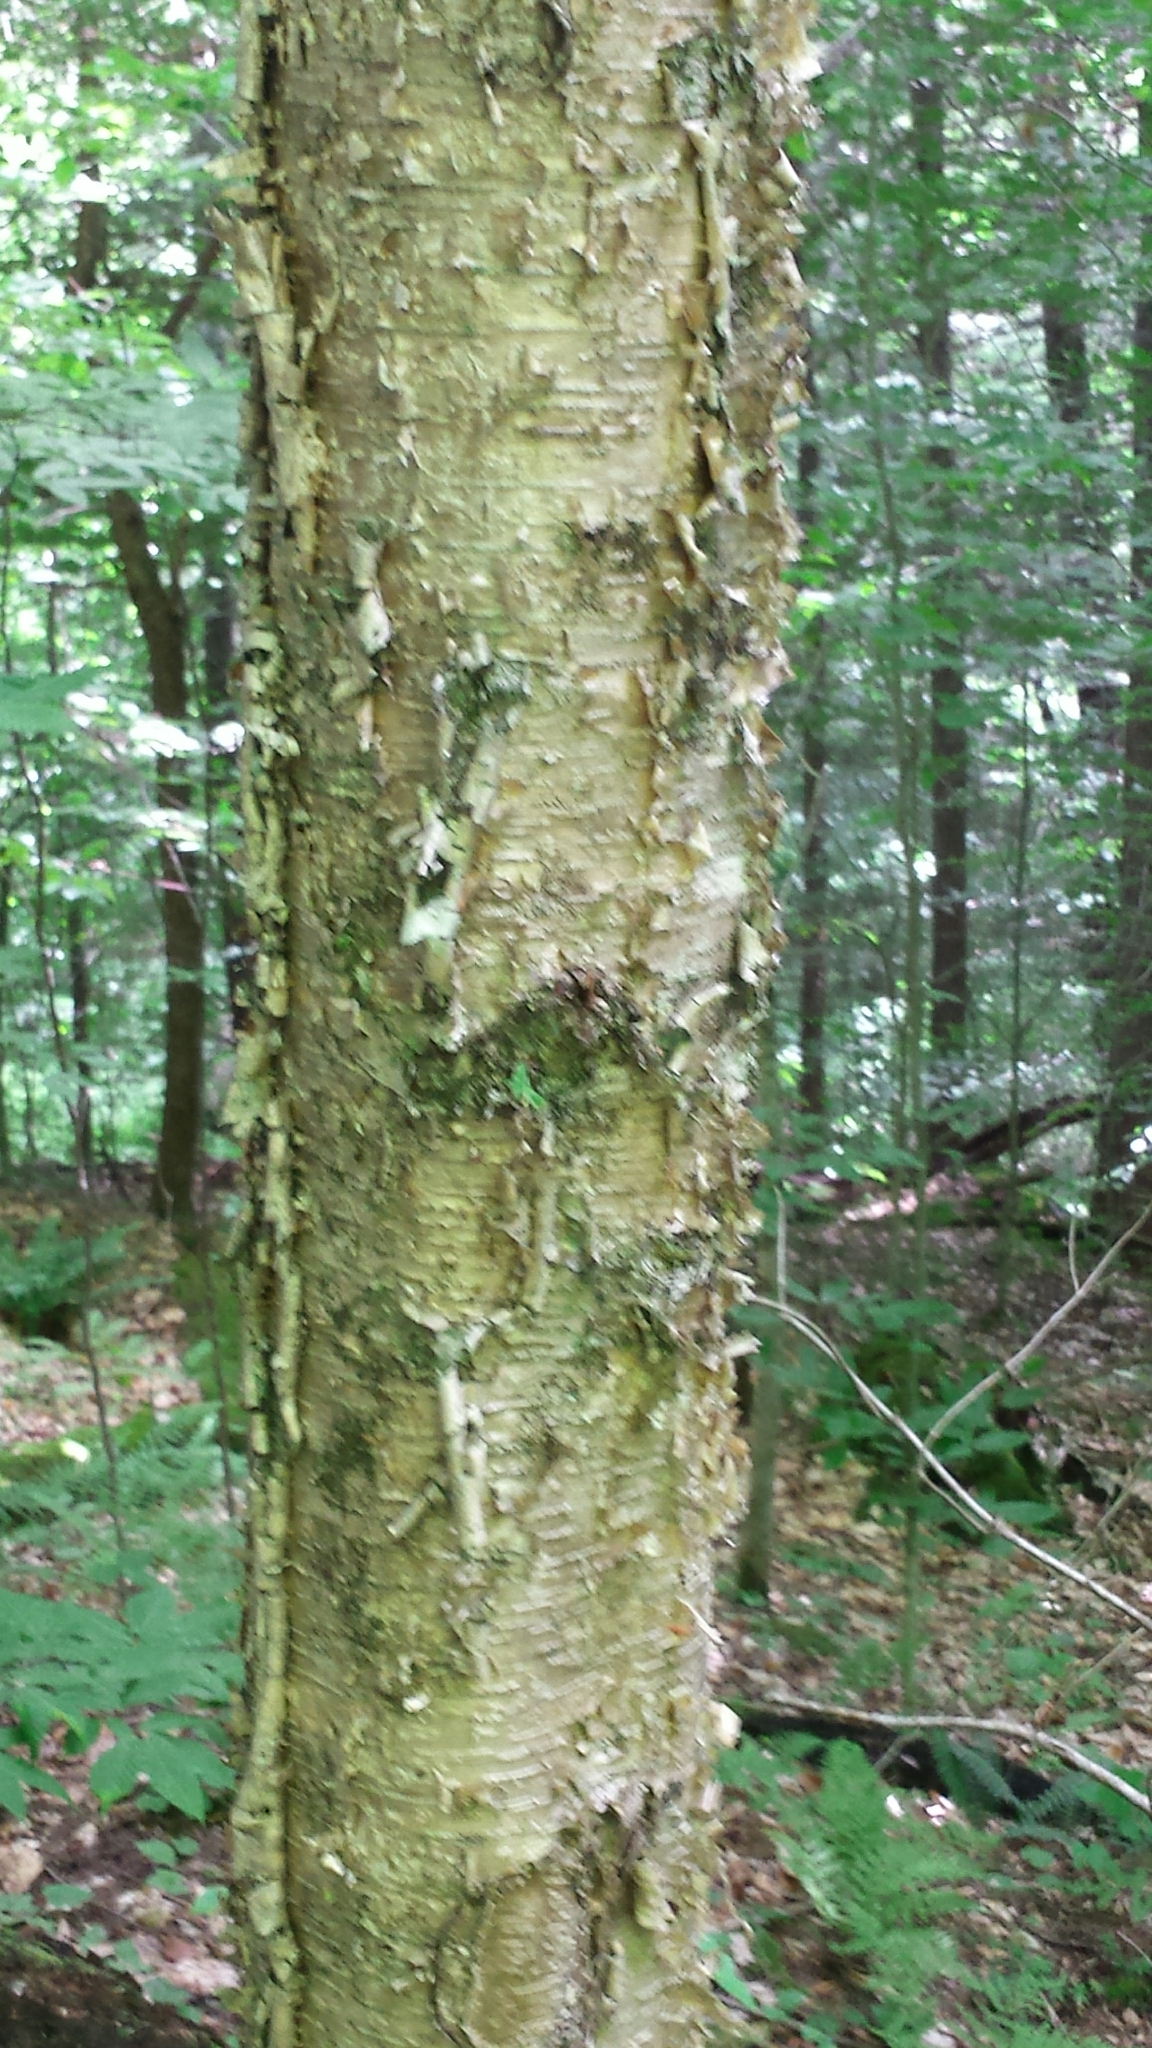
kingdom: Plantae
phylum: Tracheophyta
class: Magnoliopsida
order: Fagales
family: Betulaceae
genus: Betula
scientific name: Betula alleghaniensis
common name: Yellow birch
